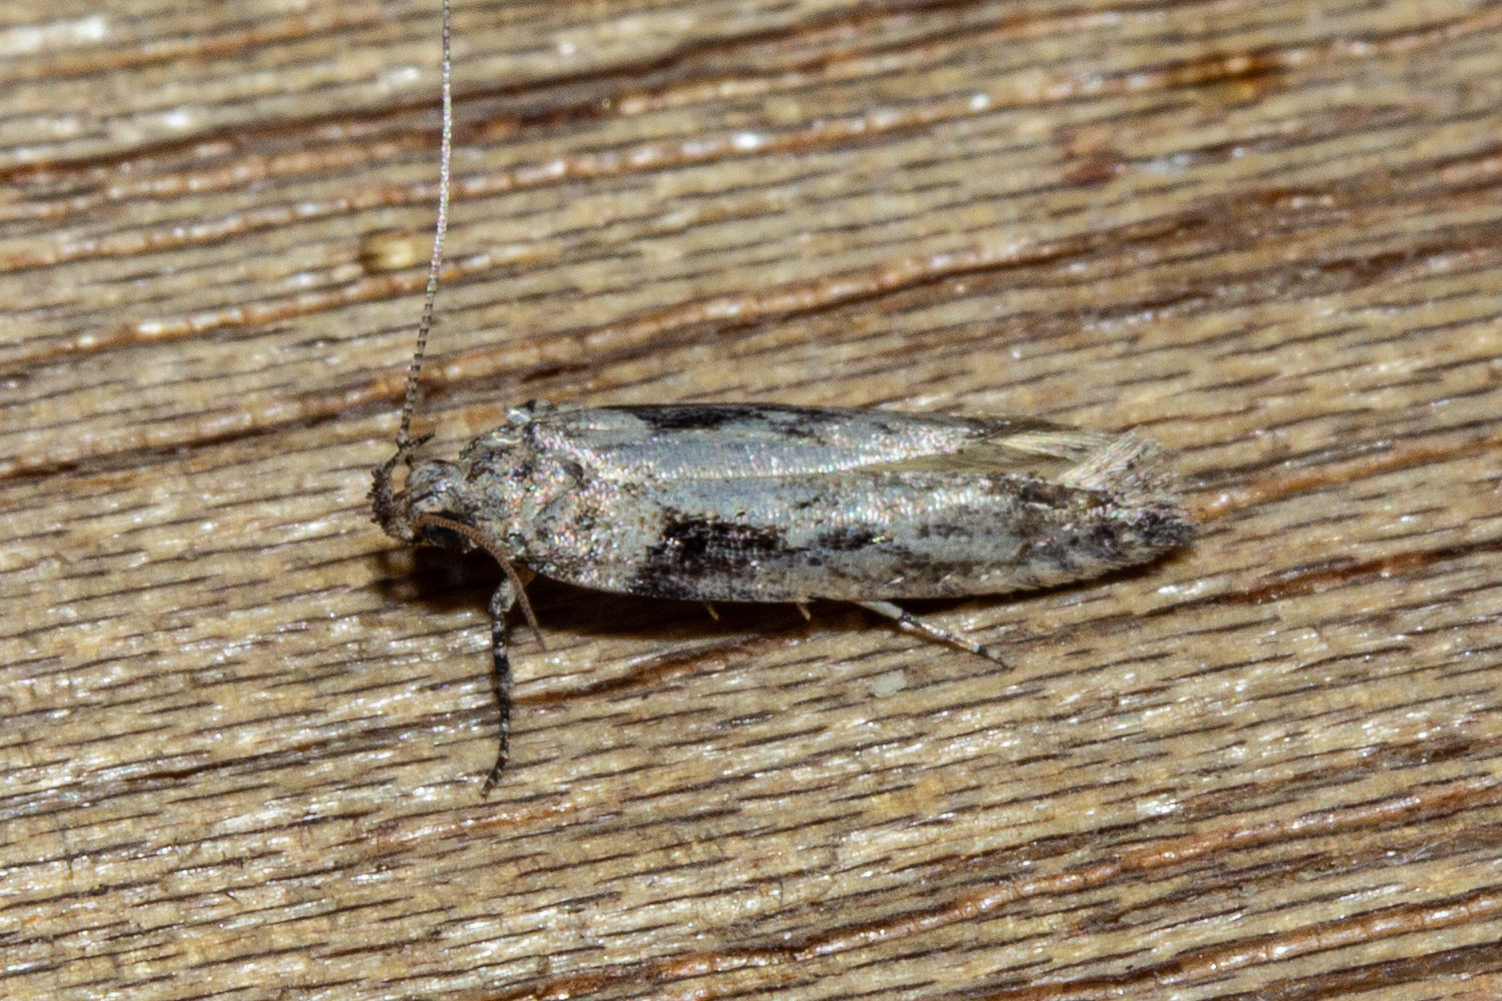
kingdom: Animalia
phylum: Arthropoda
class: Insecta
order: Lepidoptera
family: Gelechiidae
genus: Symmetrischema
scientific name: Symmetrischema tangolias
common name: Moth
